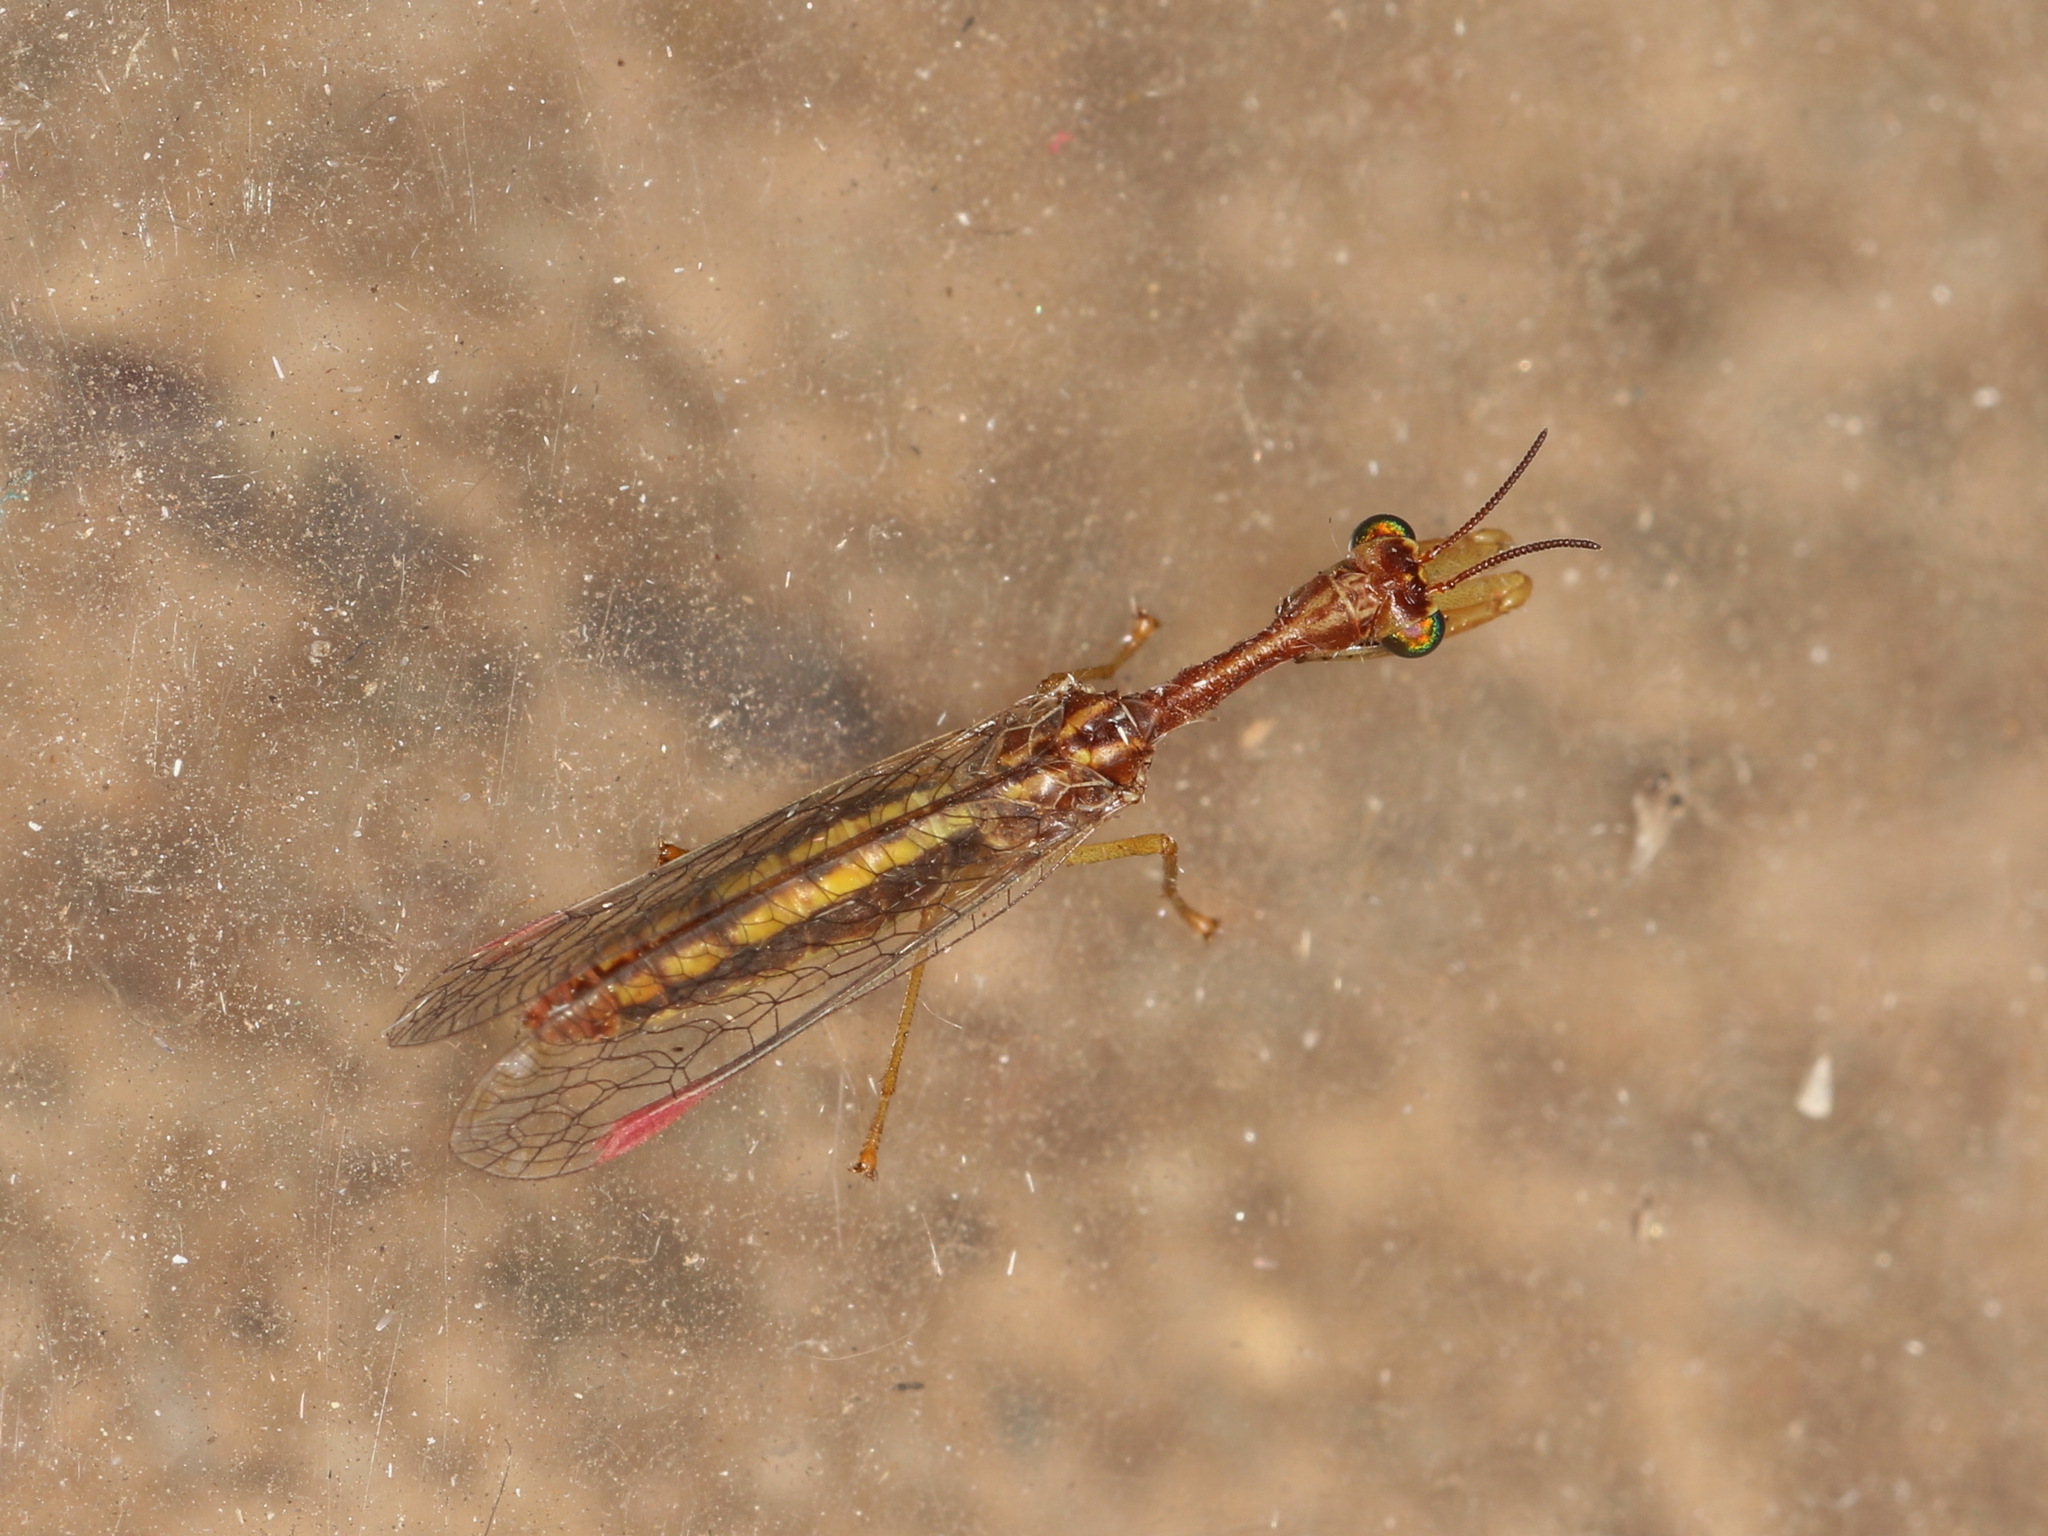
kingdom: Animalia
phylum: Arthropoda
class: Insecta
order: Neuroptera
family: Mantispidae
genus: Campion
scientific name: Campion callosus
